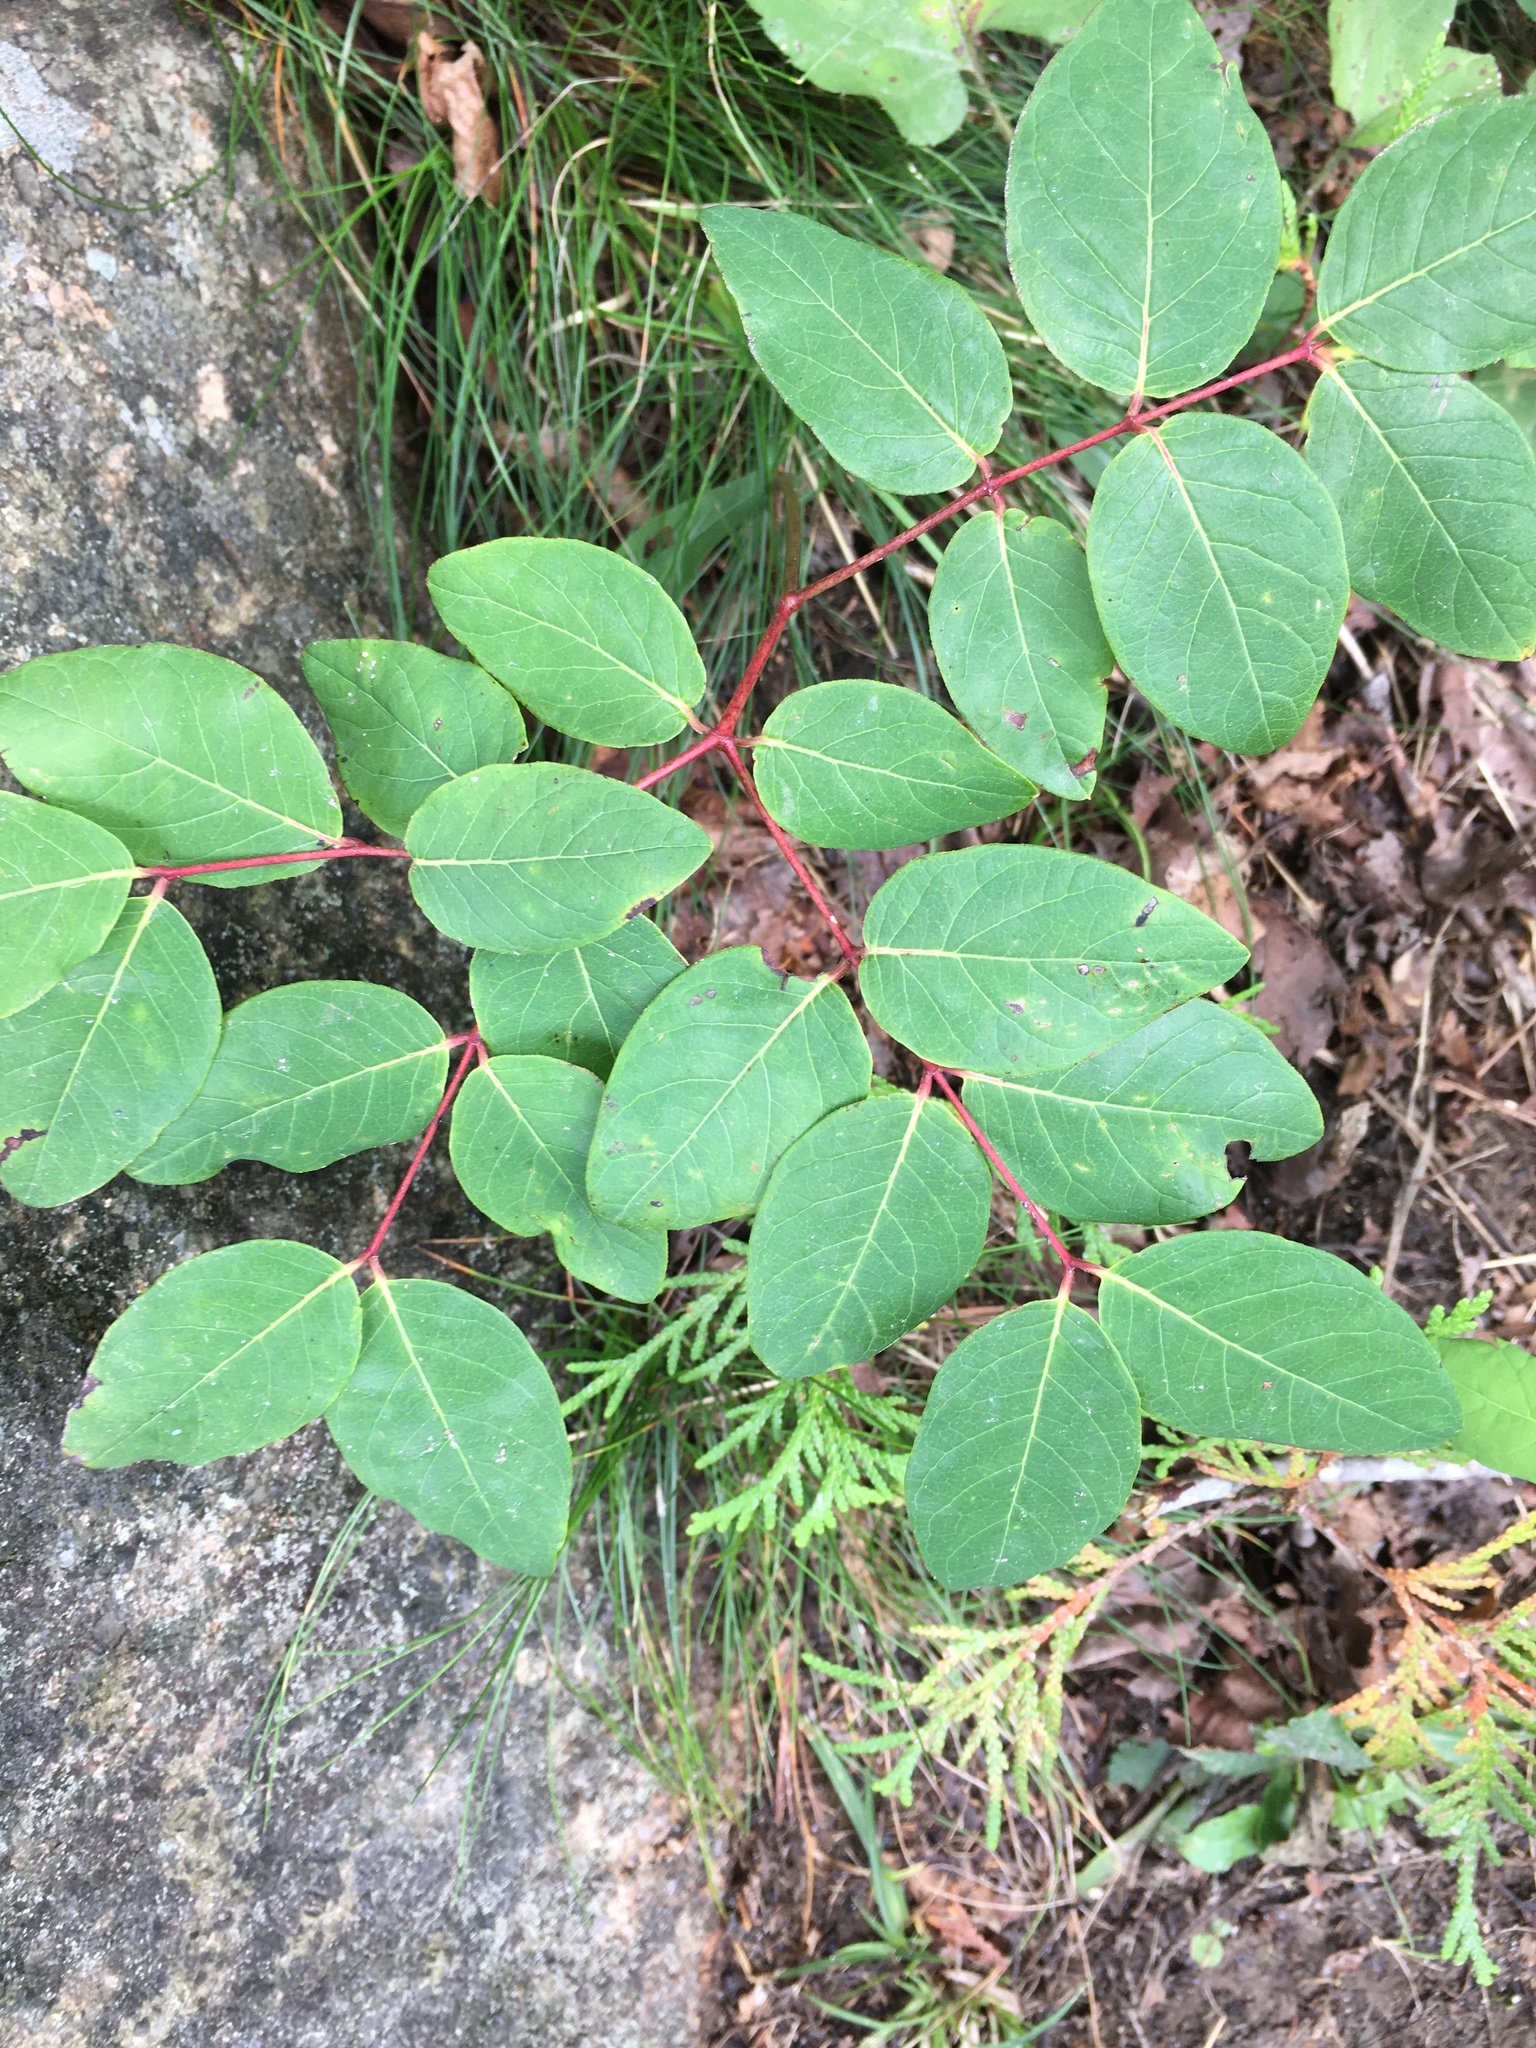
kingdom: Plantae
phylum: Tracheophyta
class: Magnoliopsida
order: Gentianales
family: Apocynaceae
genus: Apocynum
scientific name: Apocynum androsaemifolium
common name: Spreading dogbane
